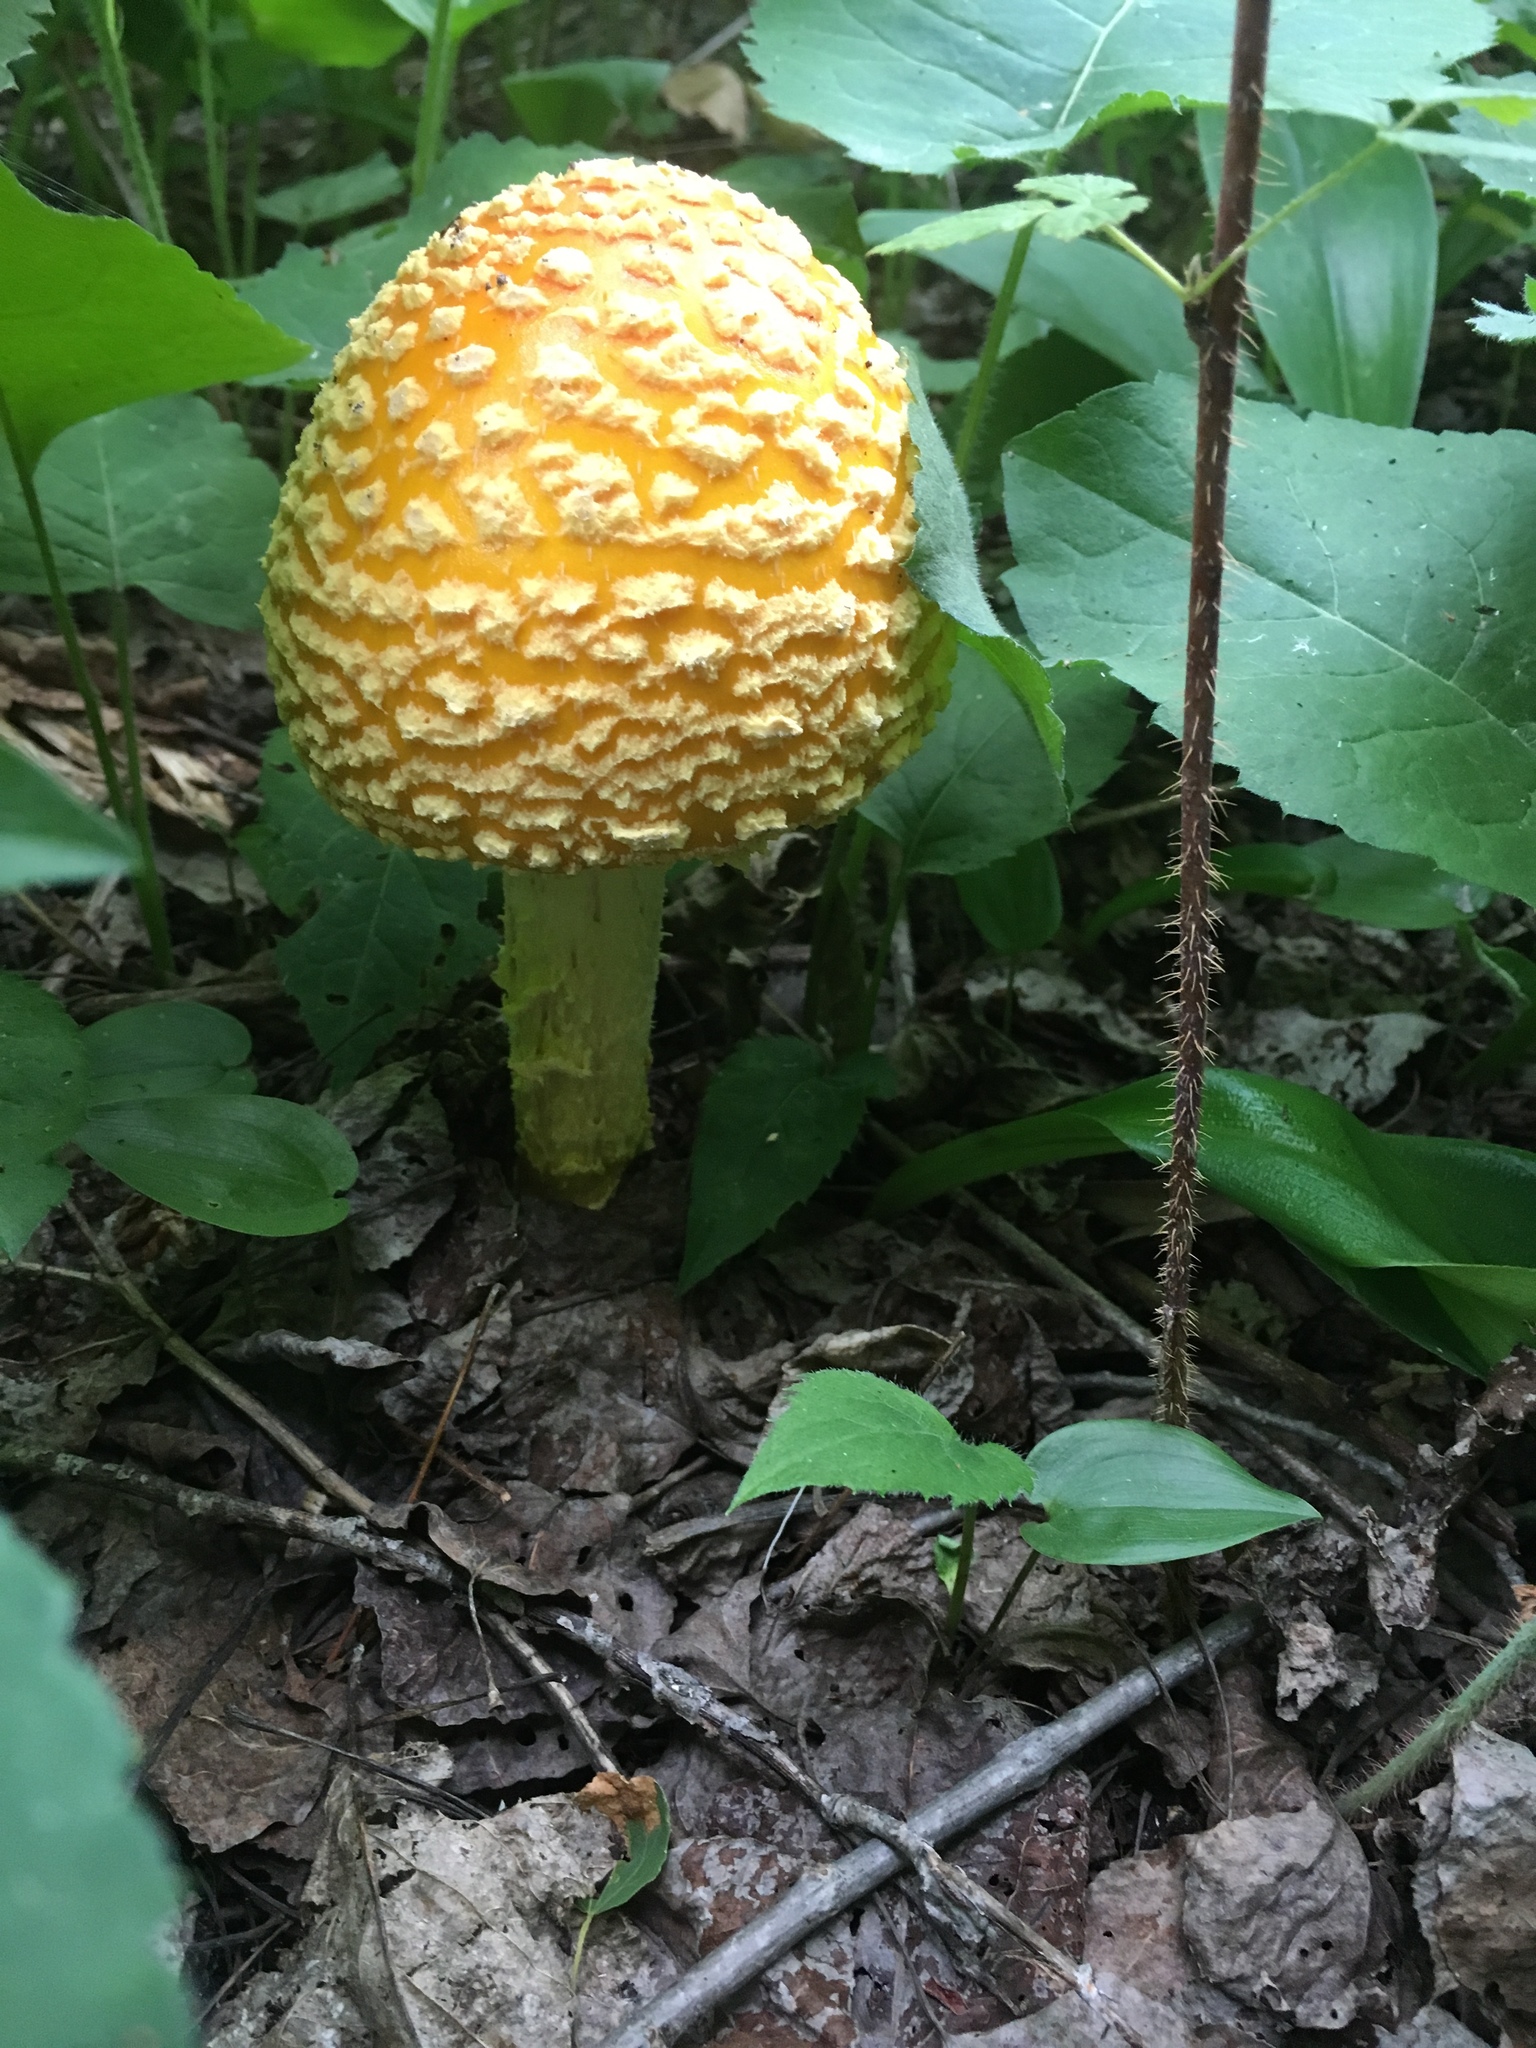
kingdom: Fungi
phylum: Basidiomycota
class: Agaricomycetes
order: Agaricales
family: Amanitaceae
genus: Amanita
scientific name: Amanita muscaria
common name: Fly agaric
